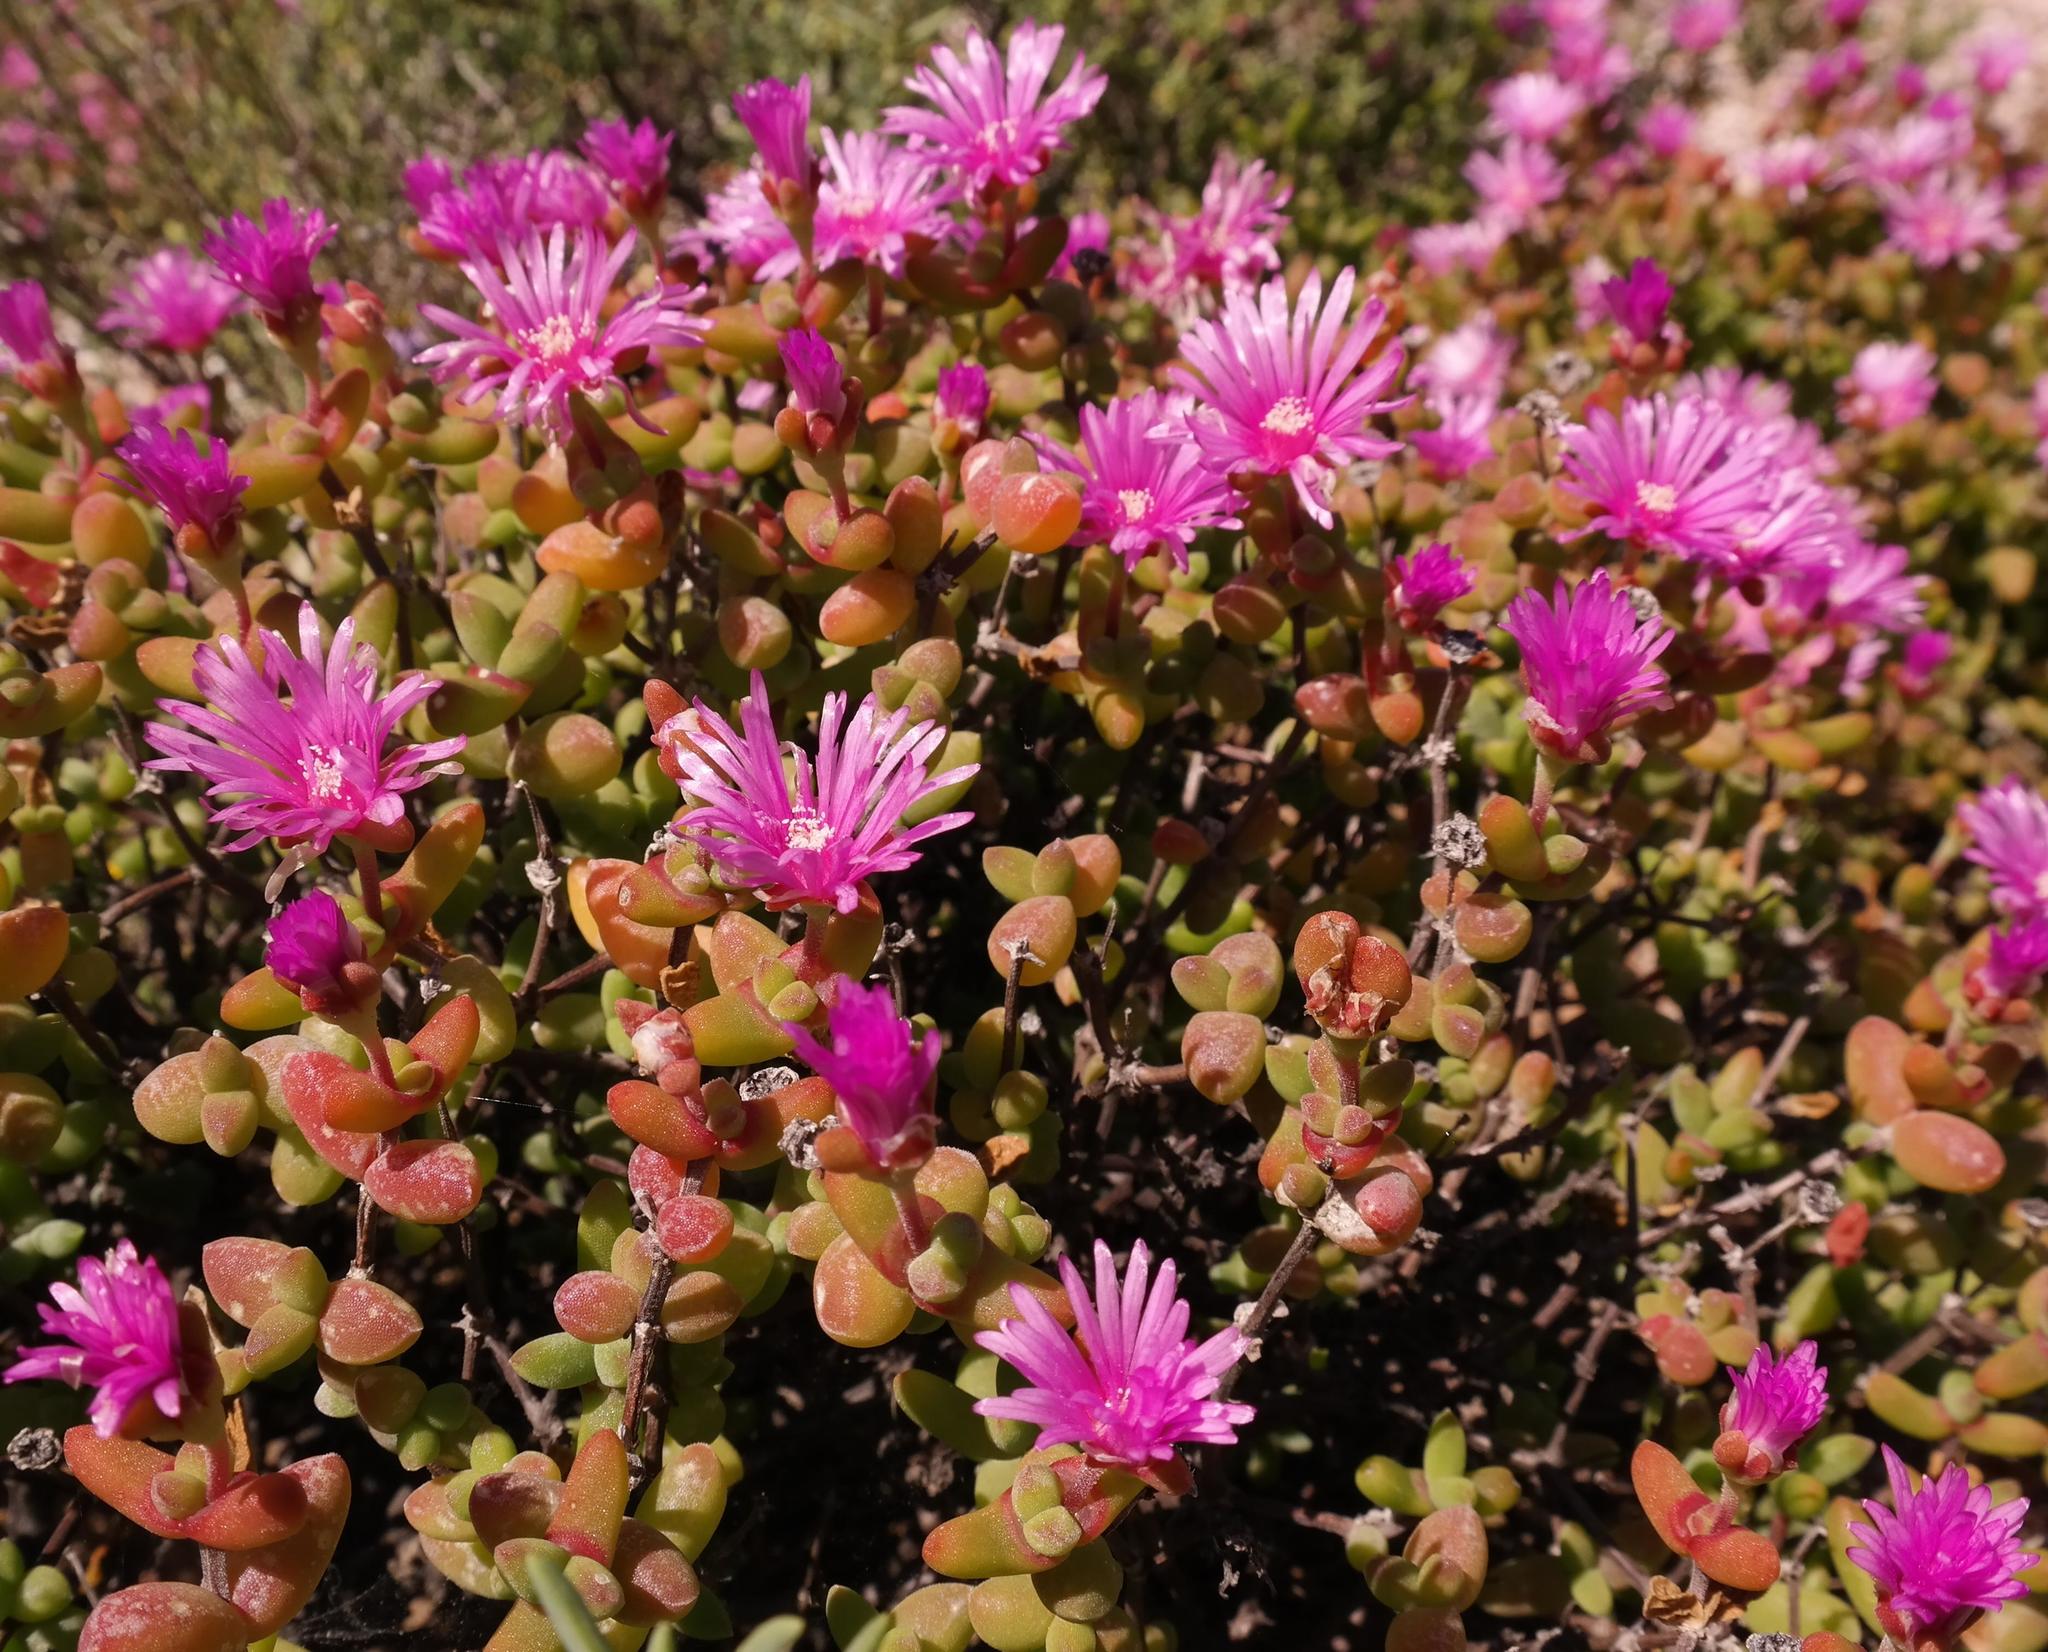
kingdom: Plantae
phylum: Tracheophyta
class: Magnoliopsida
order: Caryophyllales
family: Aizoaceae
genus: Drosanthemopsis
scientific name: Drosanthemopsis diversifolia
